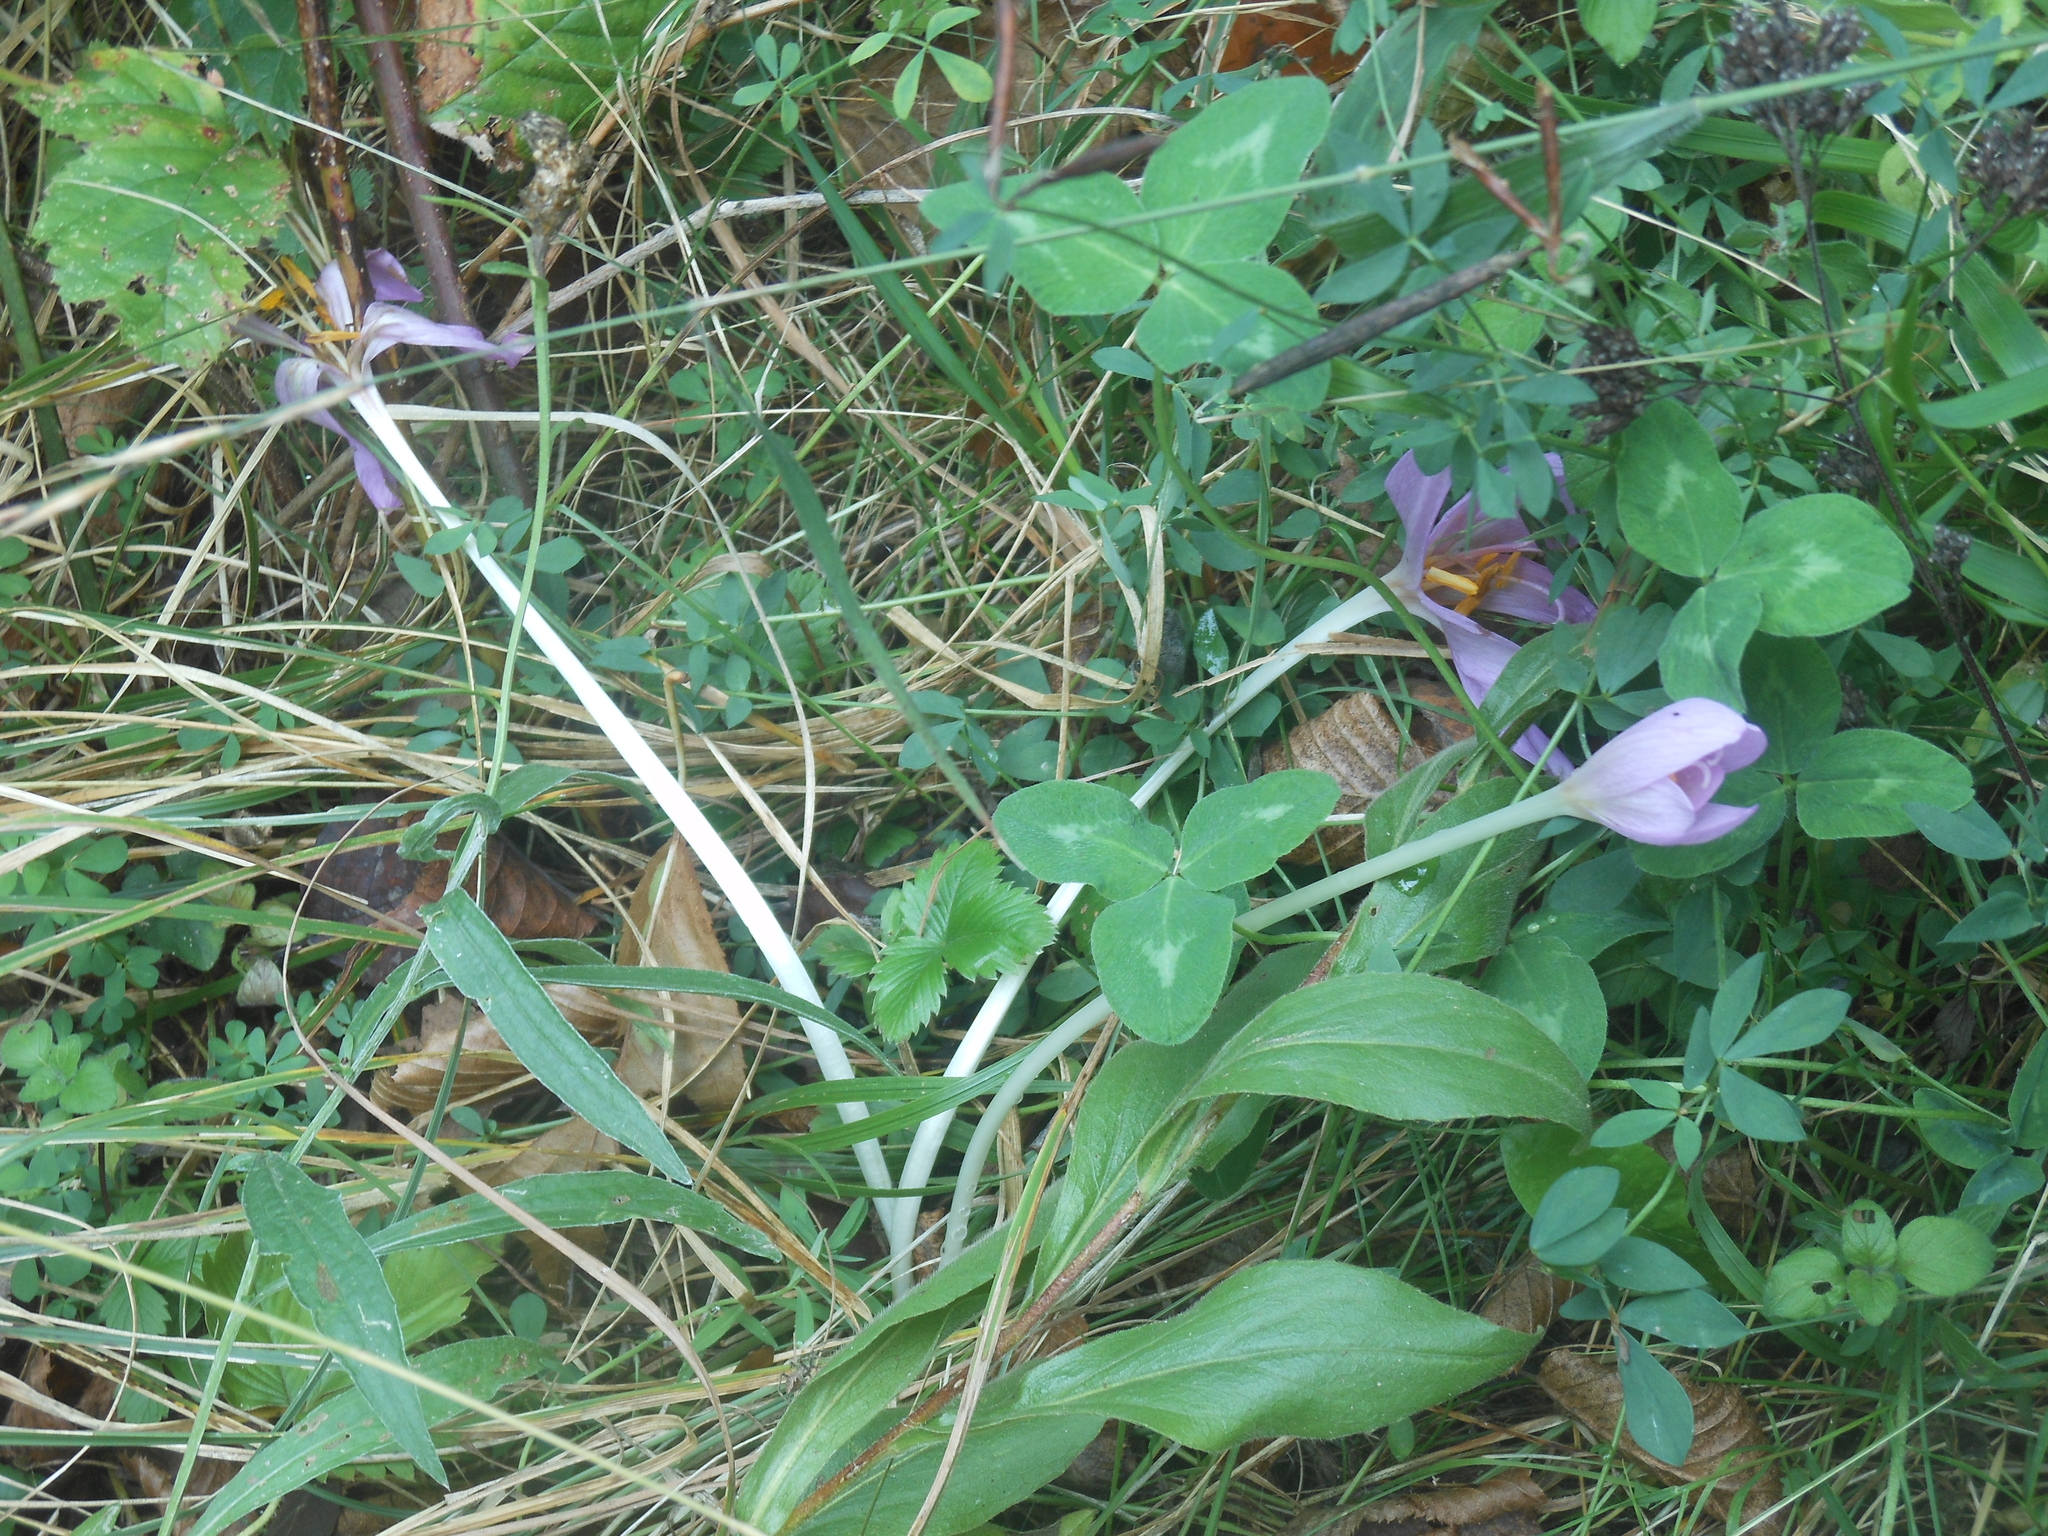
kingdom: Plantae
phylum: Tracheophyta
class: Liliopsida
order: Liliales
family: Colchicaceae
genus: Colchicum
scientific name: Colchicum autumnale
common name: Autumn crocus
